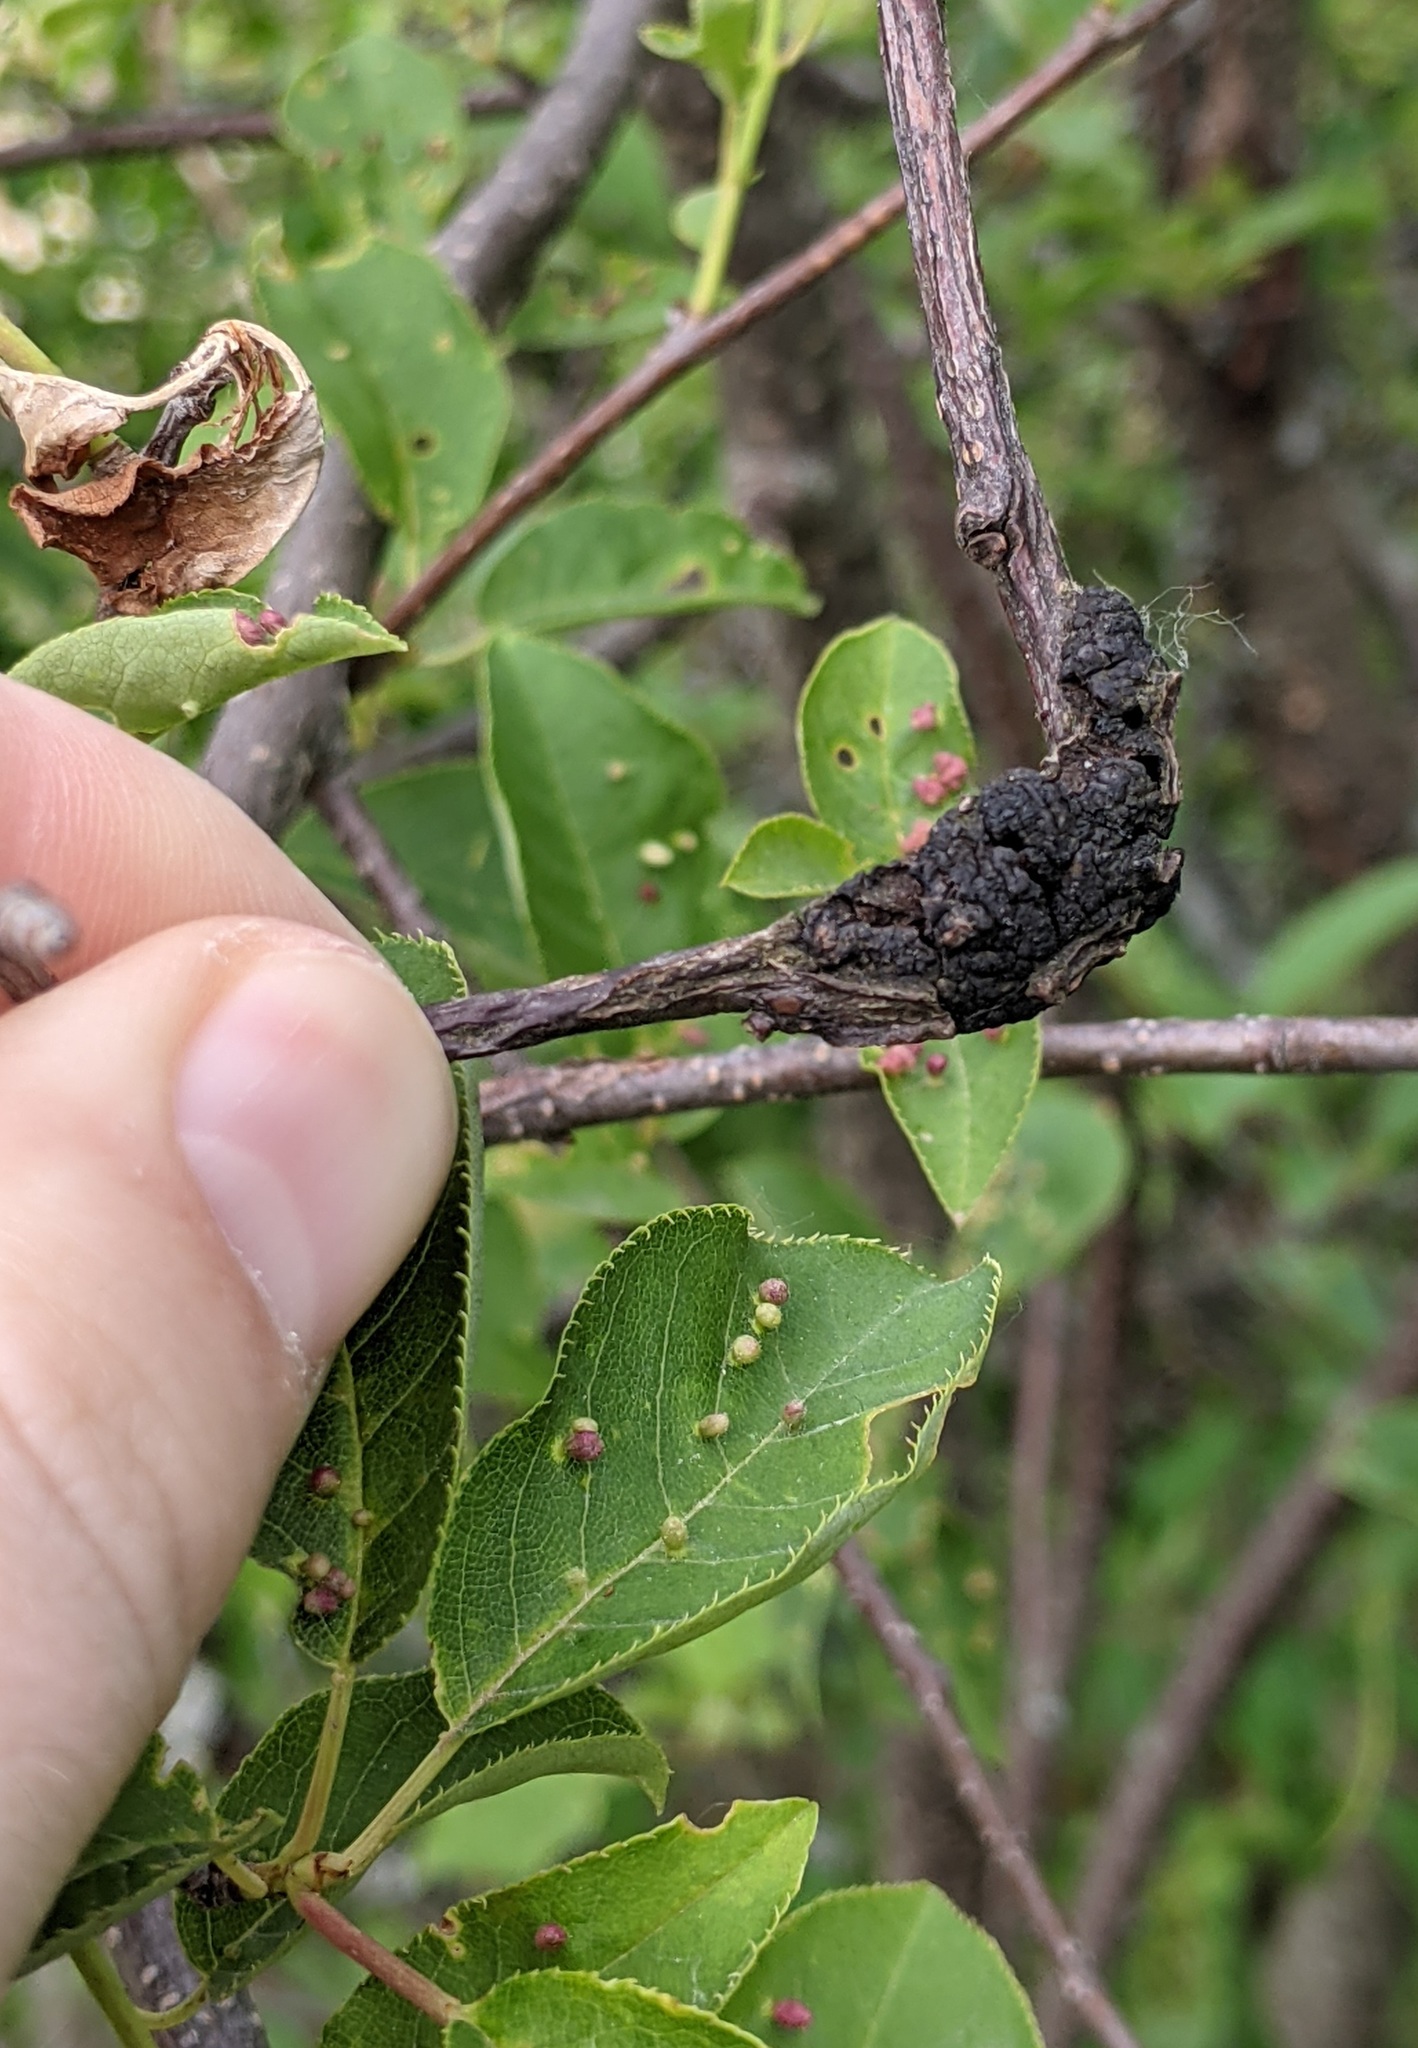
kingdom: Fungi
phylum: Ascomycota
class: Dothideomycetes
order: Venturiales
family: Venturiaceae
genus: Apiosporina
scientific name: Apiosporina morbosa
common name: Black knot
